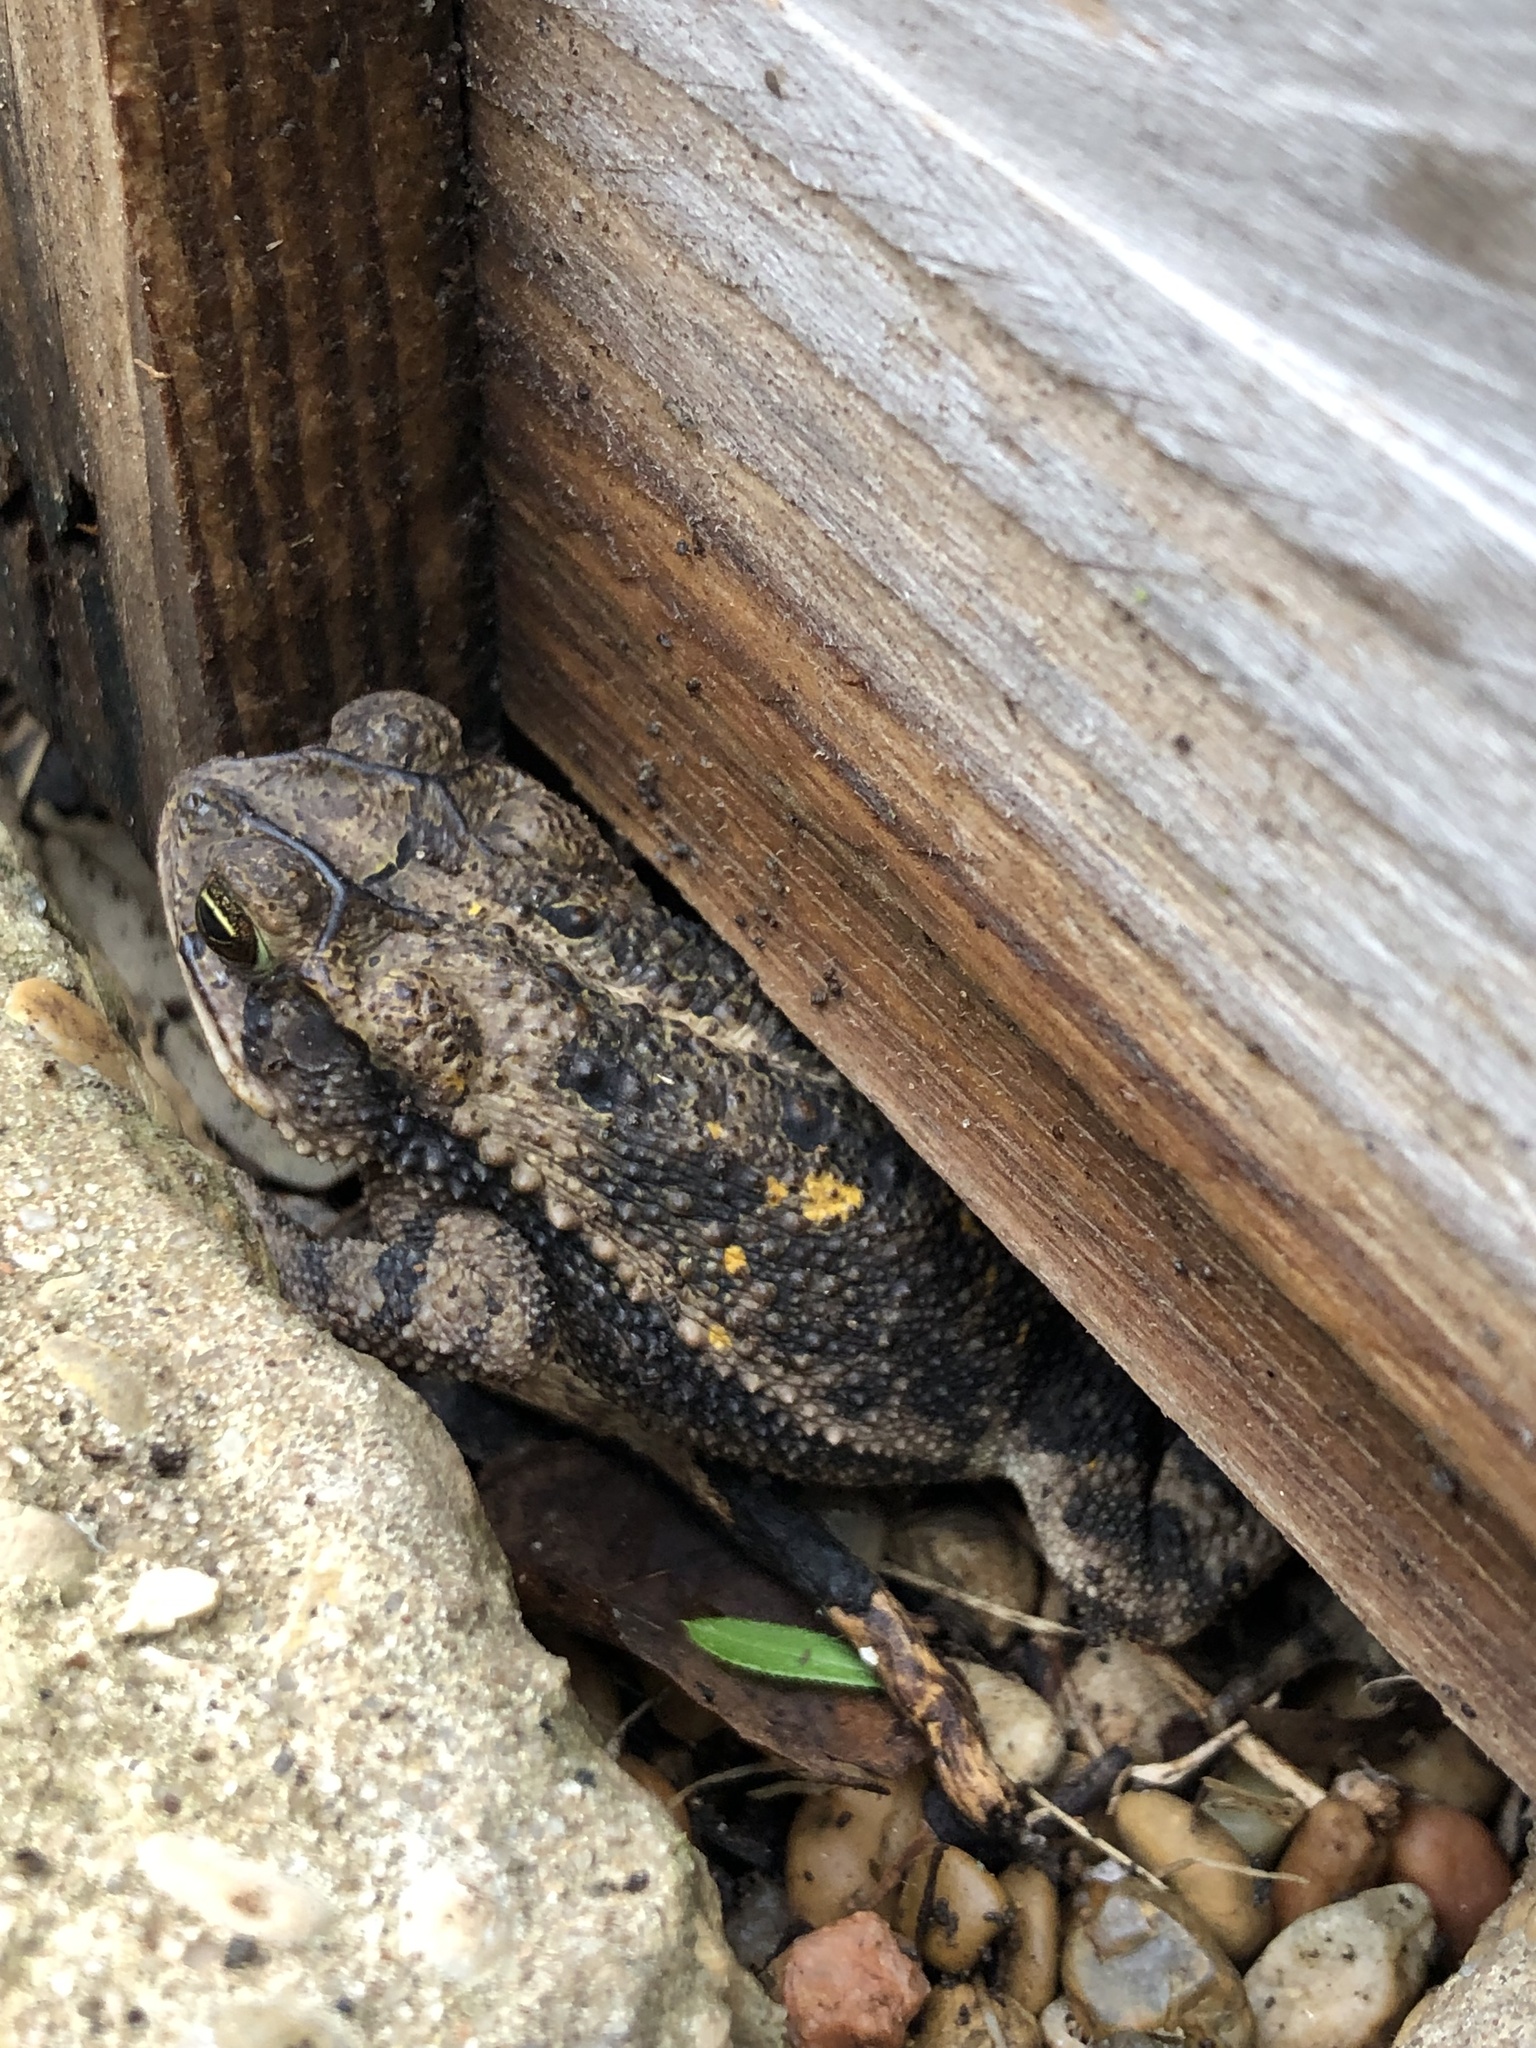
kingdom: Animalia
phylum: Chordata
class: Amphibia
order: Anura
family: Bufonidae
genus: Incilius
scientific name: Incilius nebulifer
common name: Gulf coast toad
